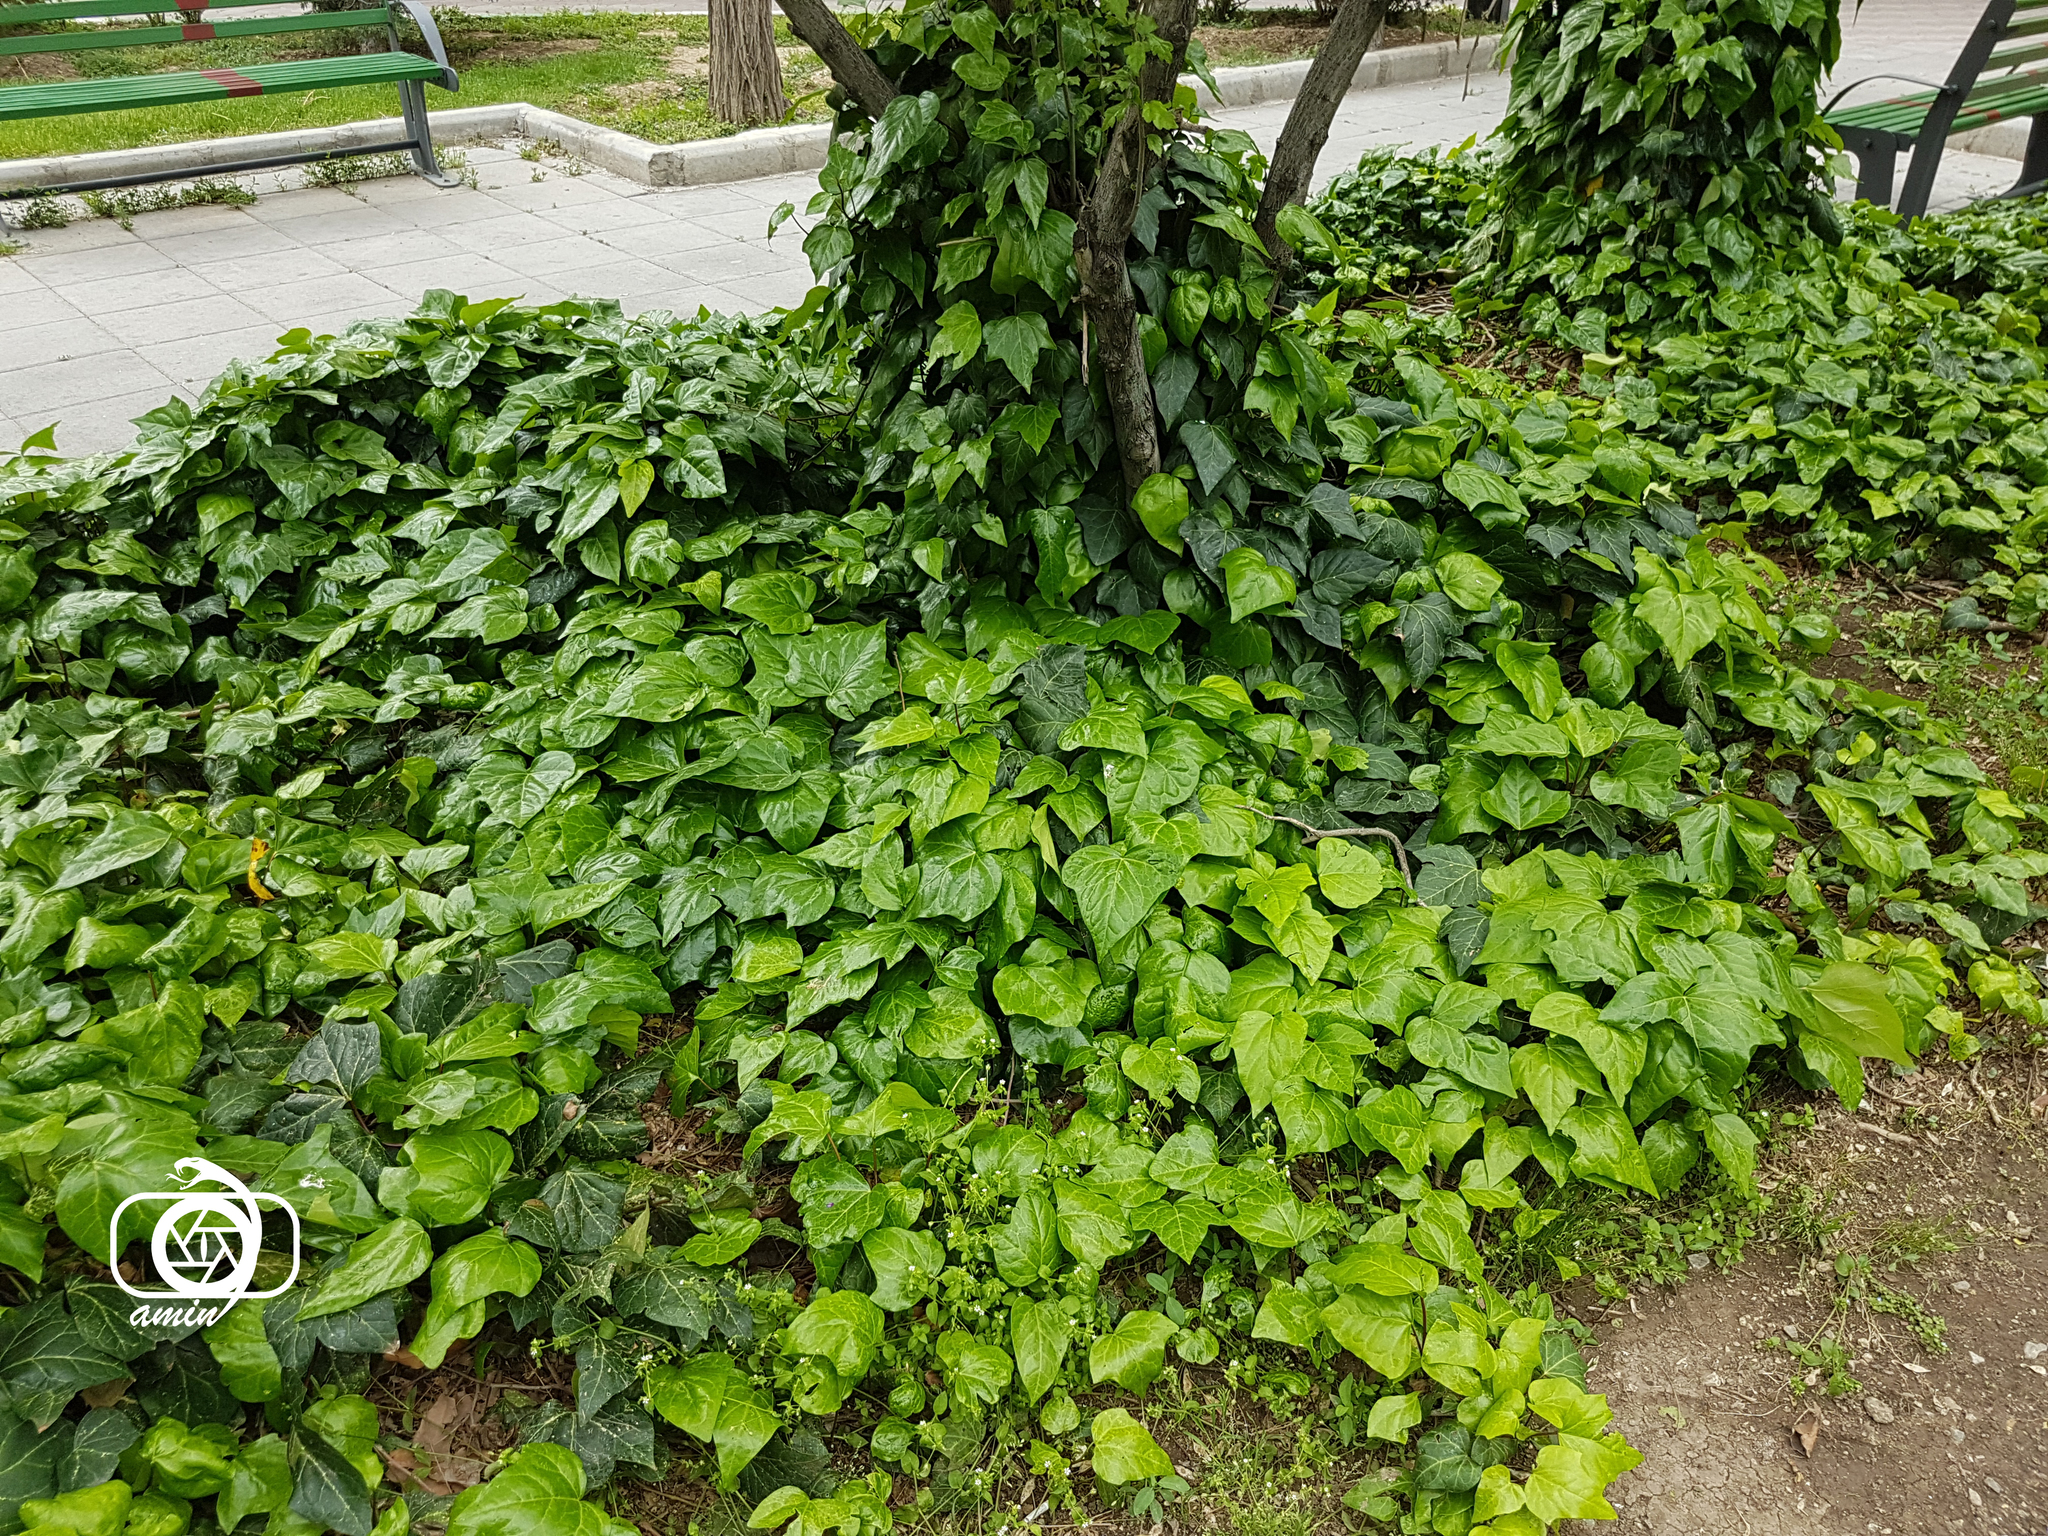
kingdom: Plantae
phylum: Tracheophyta
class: Magnoliopsida
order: Apiales
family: Araliaceae
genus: Hedera
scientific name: Hedera helix
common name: Ivy
